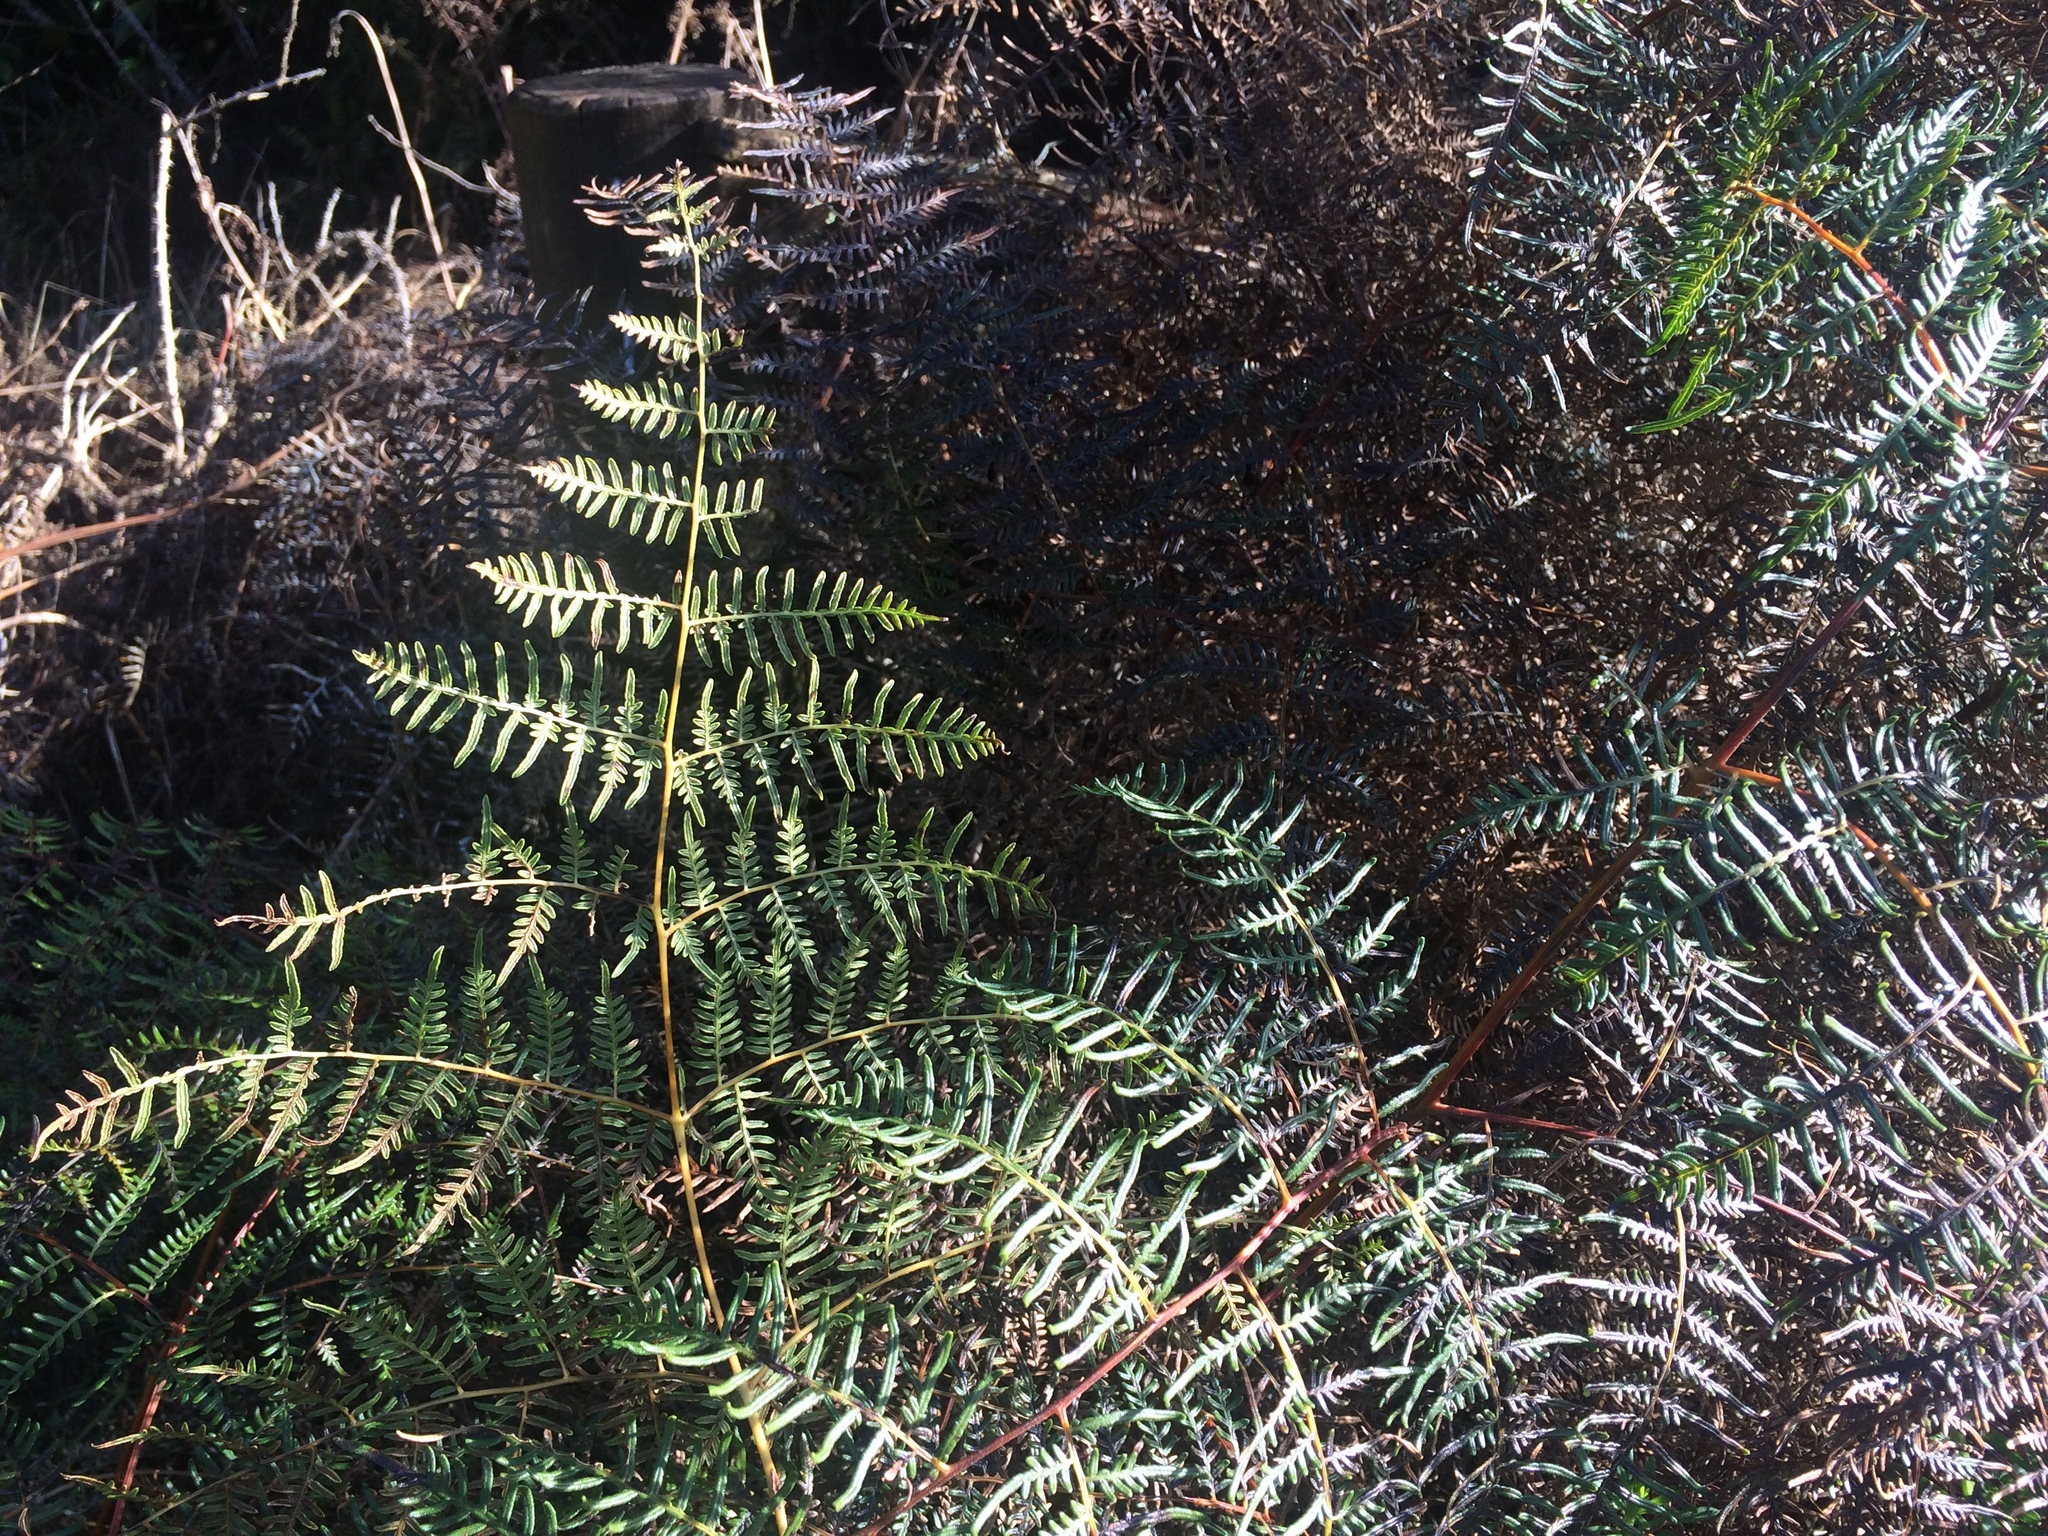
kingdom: Plantae
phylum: Tracheophyta
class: Polypodiopsida
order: Polypodiales
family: Dennstaedtiaceae
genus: Pteridium
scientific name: Pteridium esculentum
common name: Bracken fern
